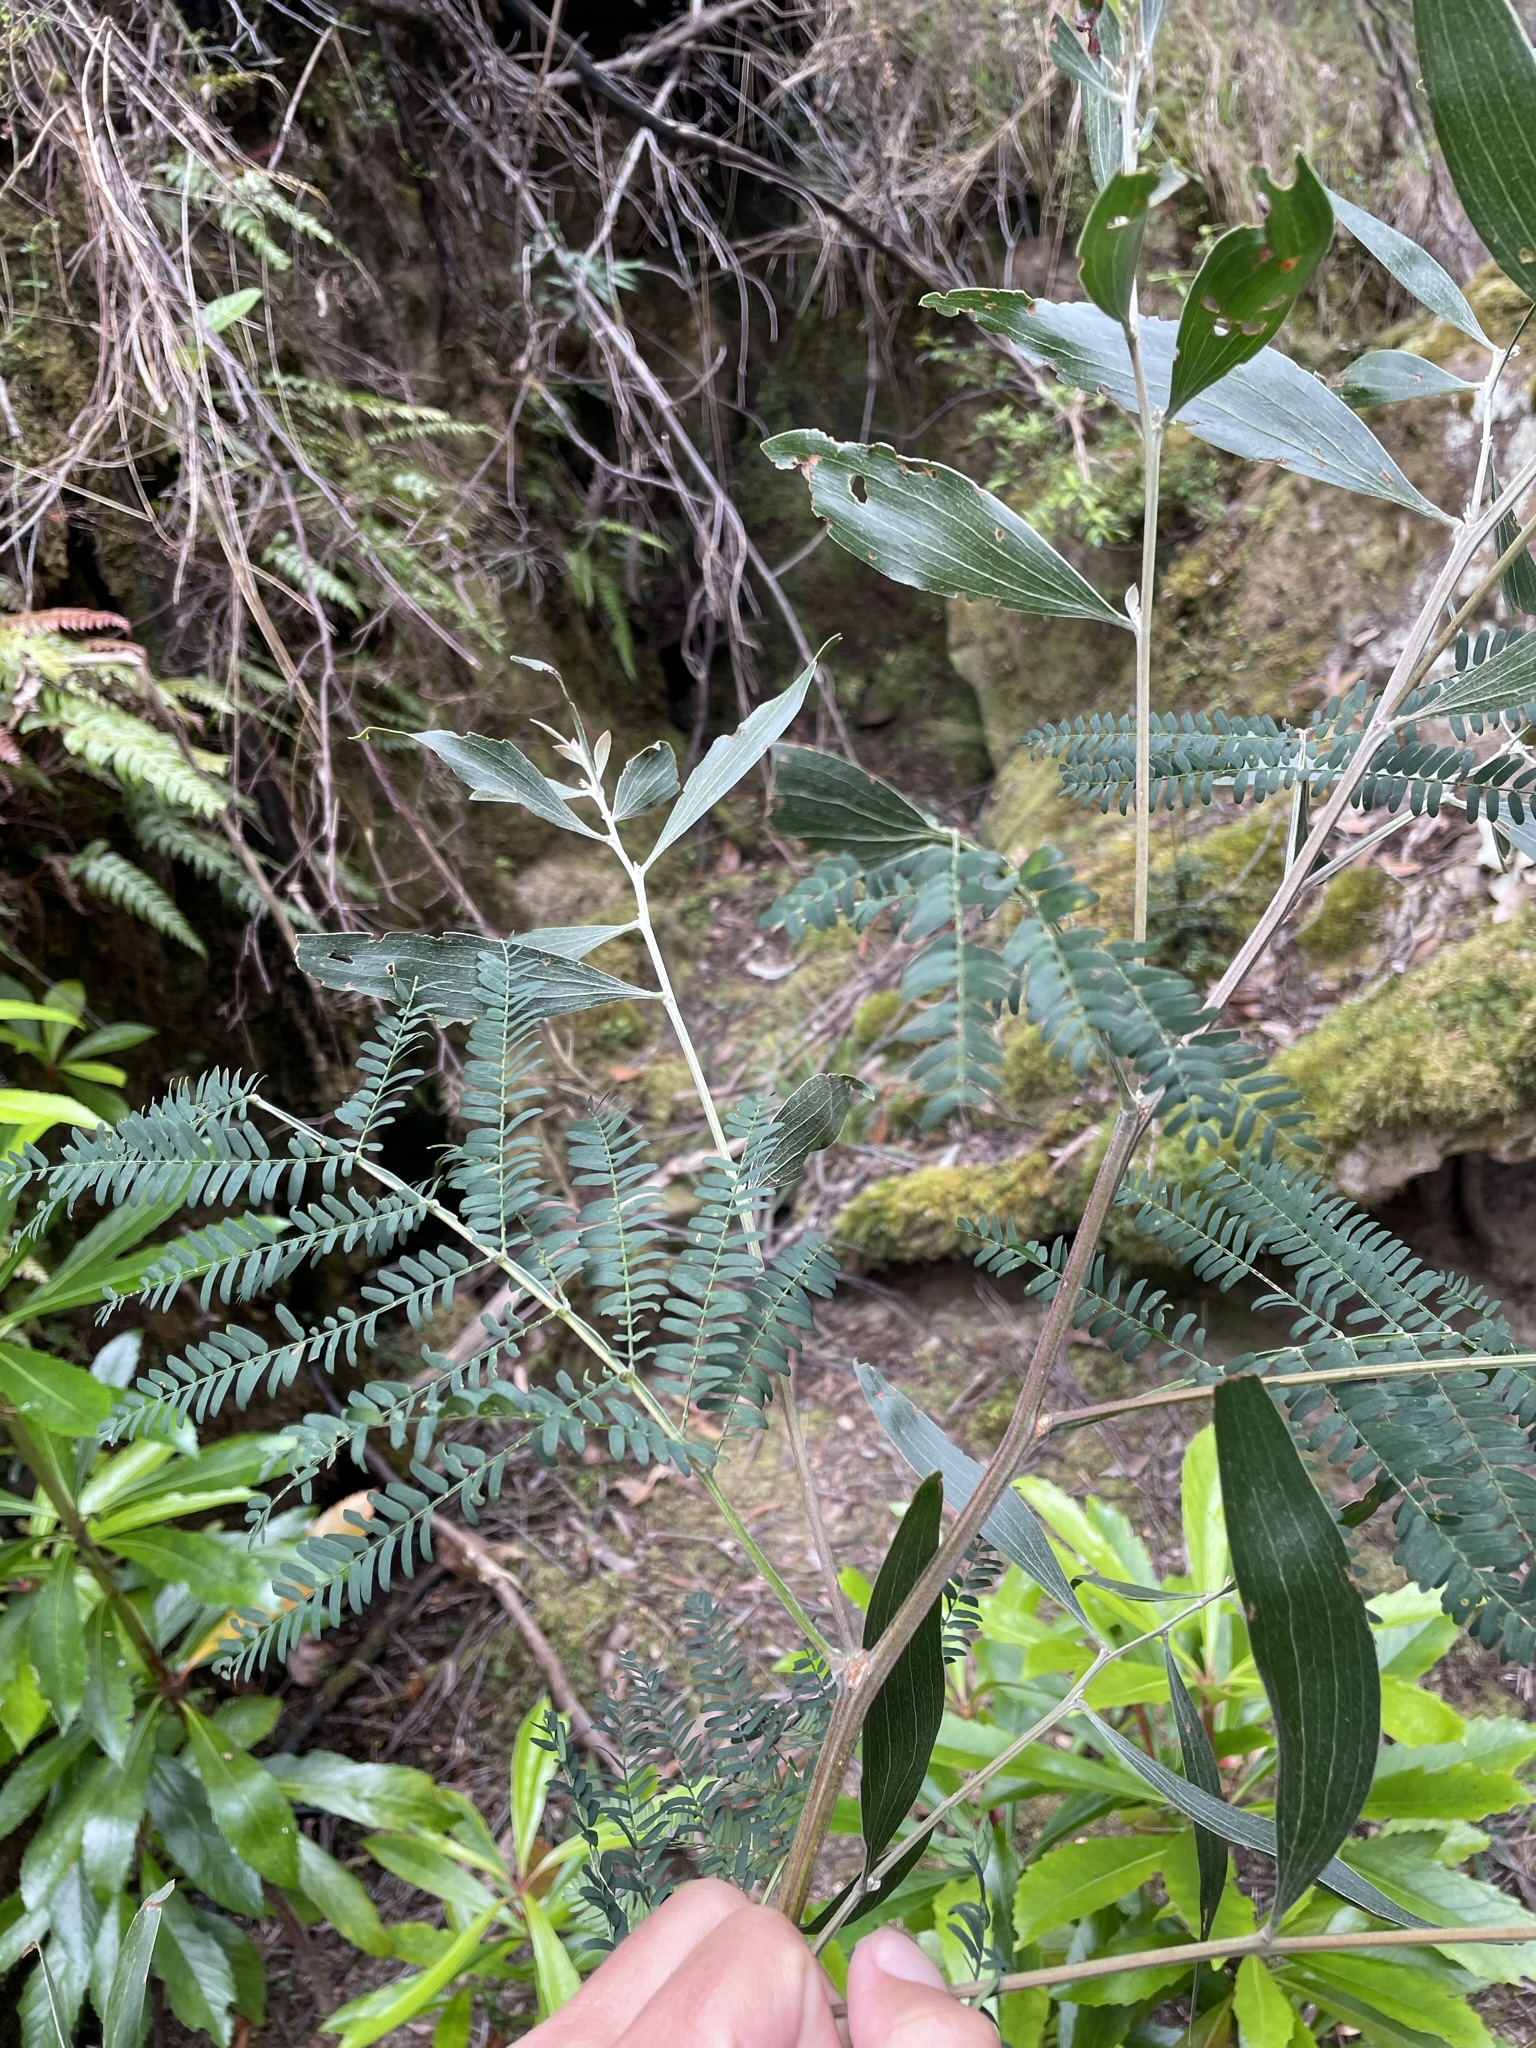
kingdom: Plantae
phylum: Tracheophyta
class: Magnoliopsida
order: Fabales
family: Fabaceae
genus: Acacia
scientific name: Acacia melanoxylon
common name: Blackwood
